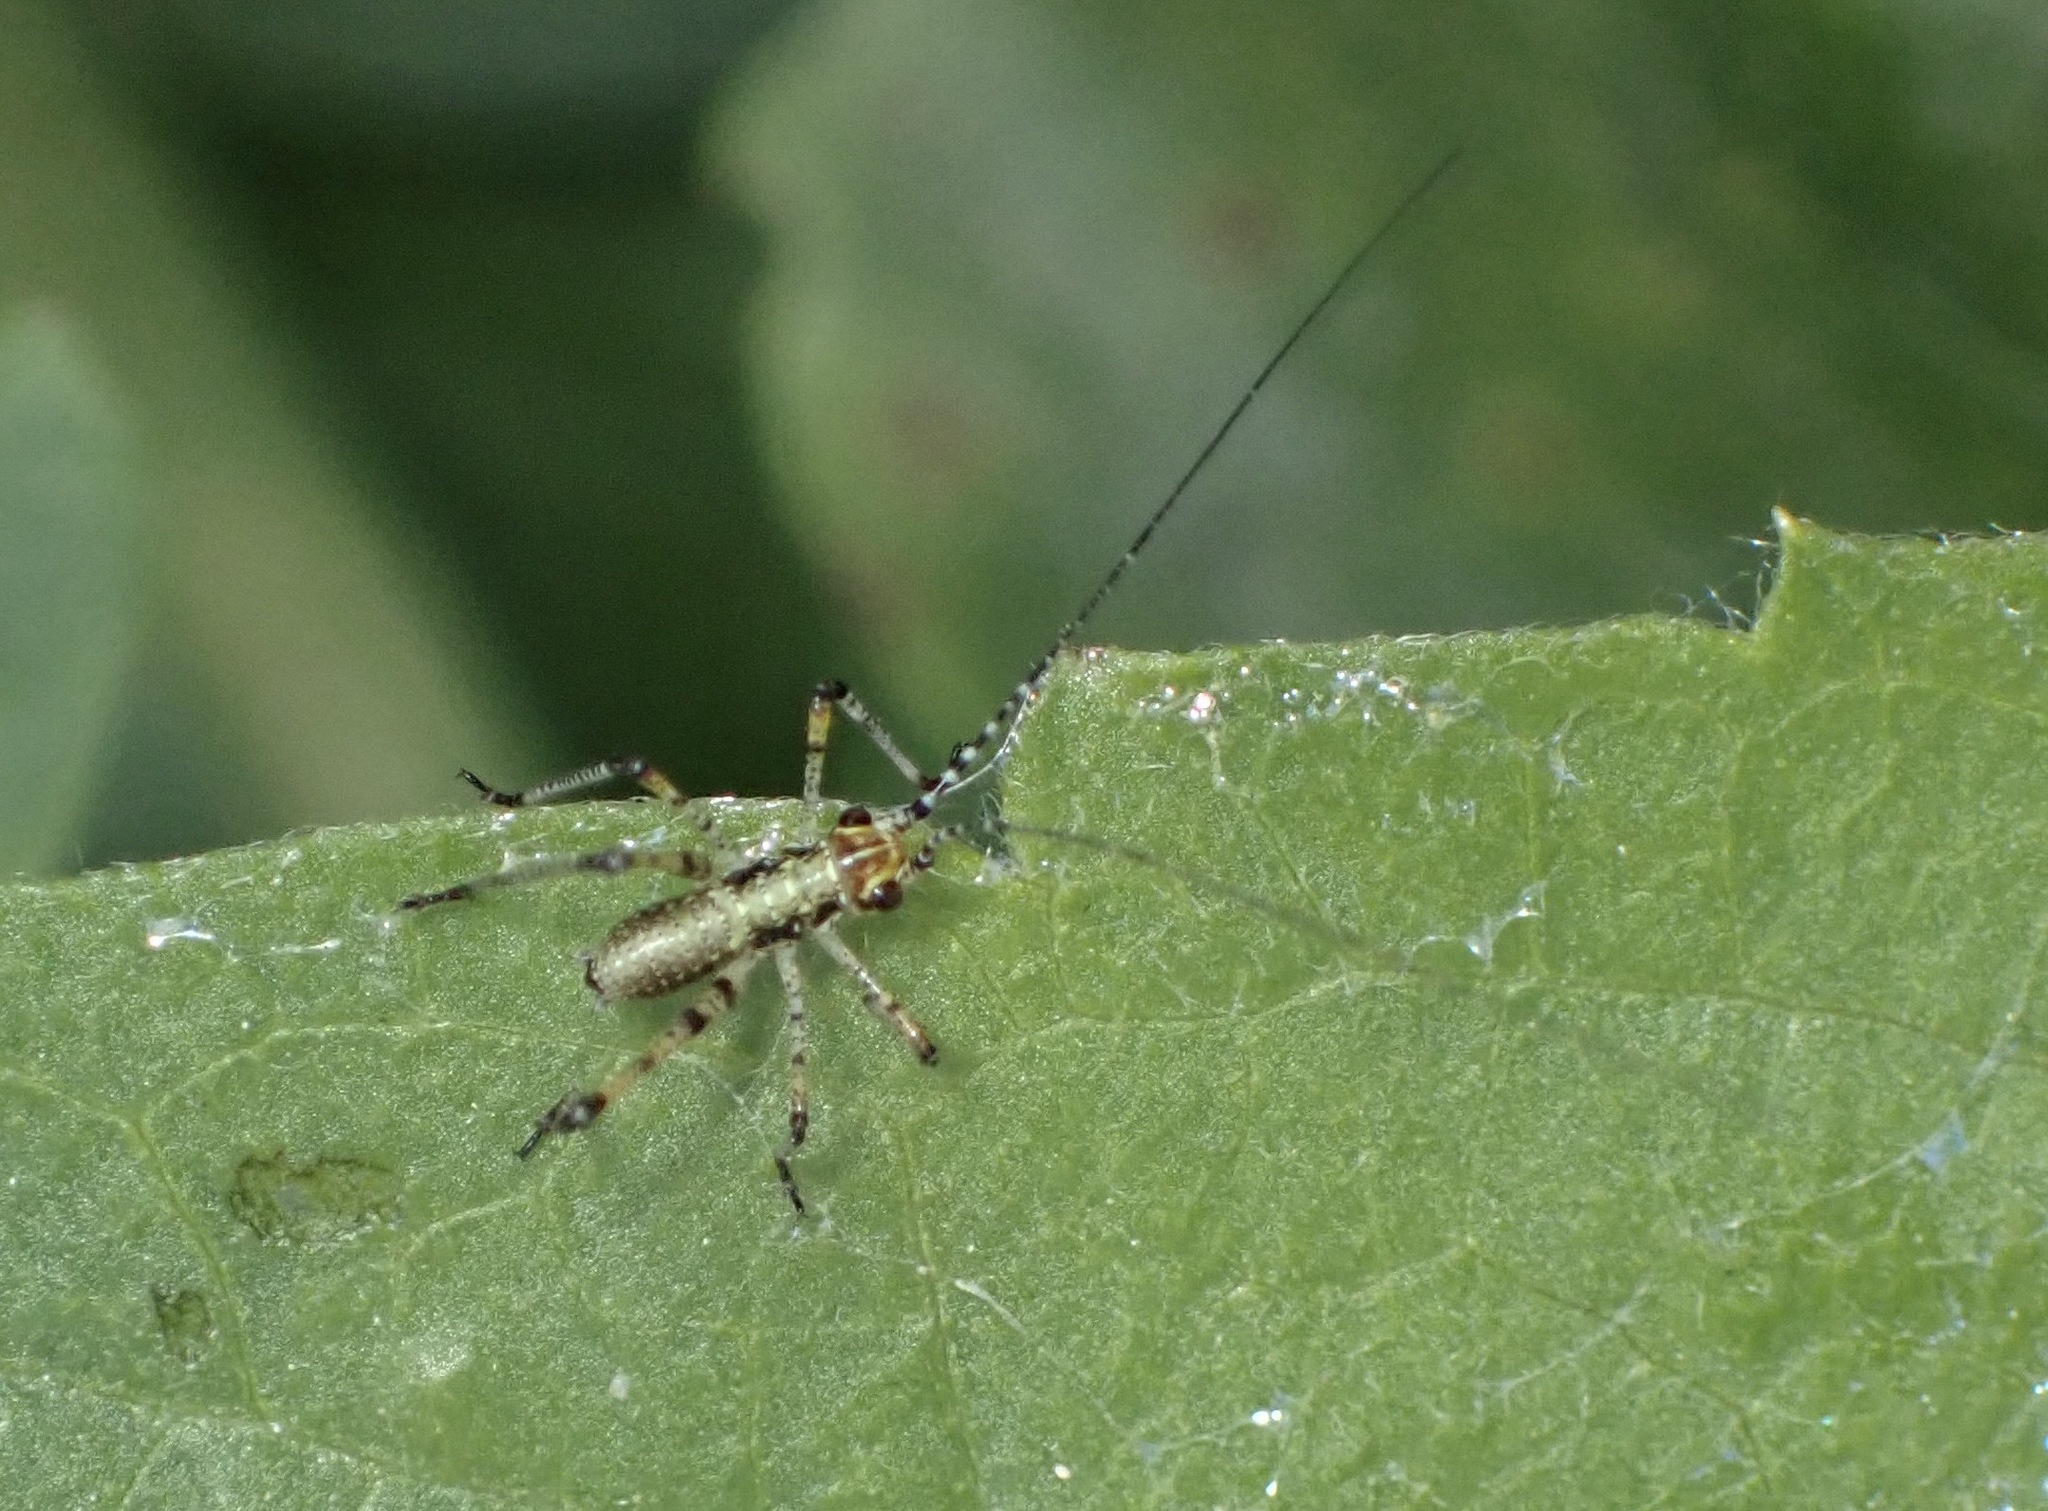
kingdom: Animalia
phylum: Arthropoda
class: Insecta
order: Orthoptera
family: Tettigoniidae
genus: Phaneroptera
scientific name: Phaneroptera nana
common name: Southern sickle bush-cricket
